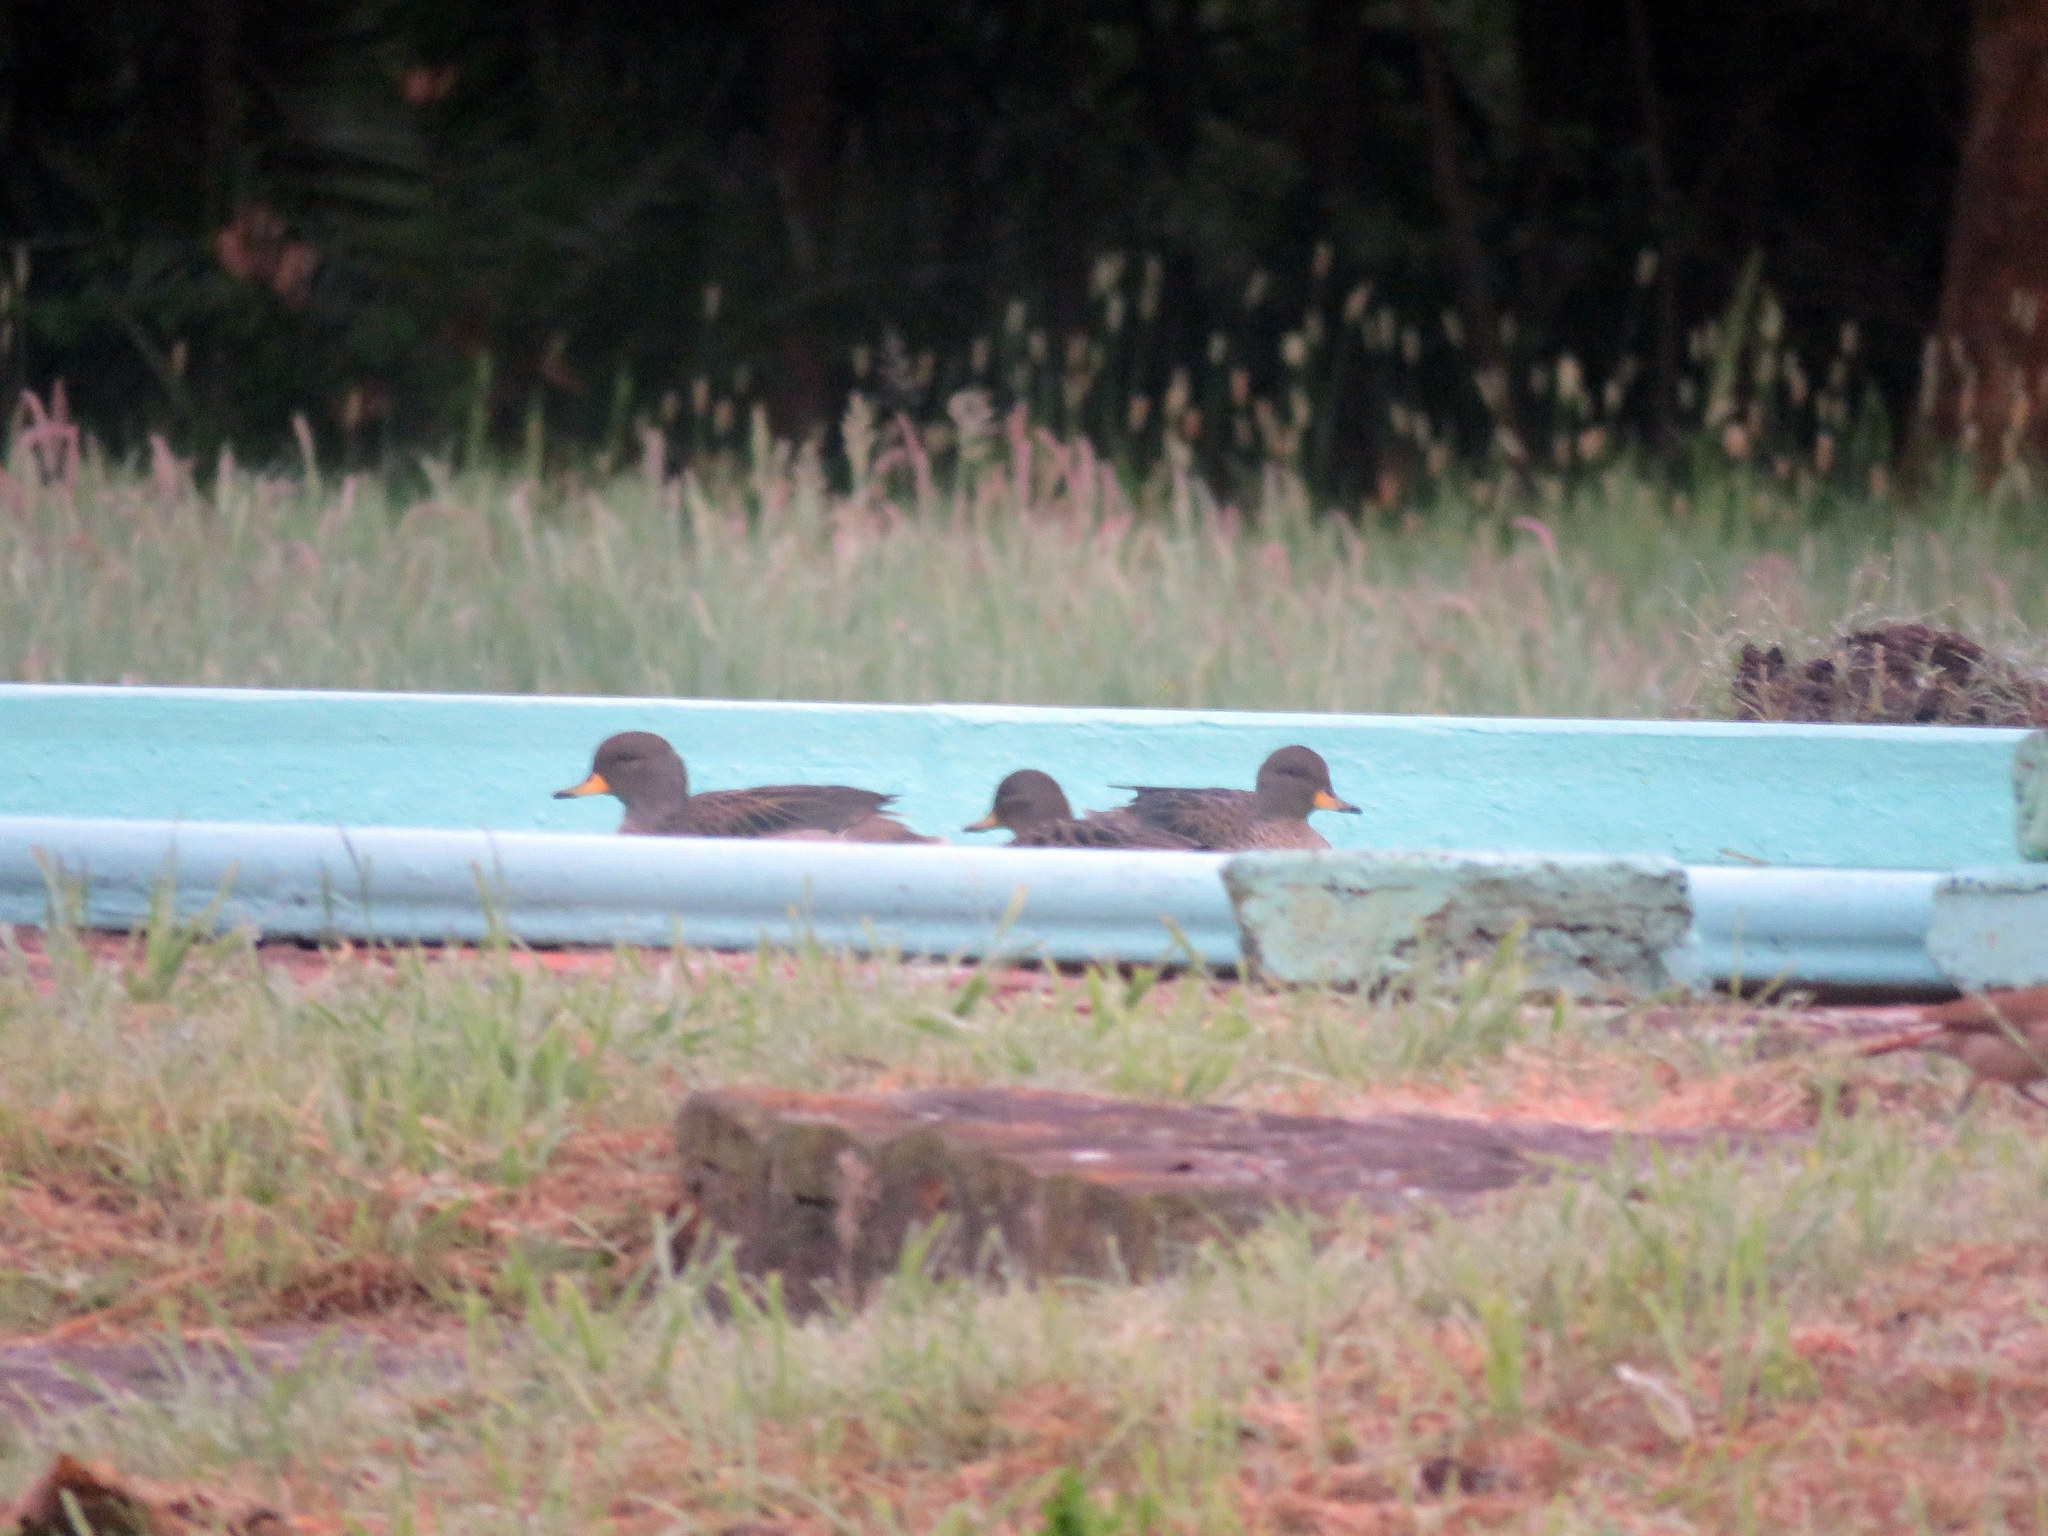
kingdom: Animalia
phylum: Chordata
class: Aves
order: Anseriformes
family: Anatidae
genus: Anas
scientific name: Anas flavirostris
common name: Yellow-billed teal
